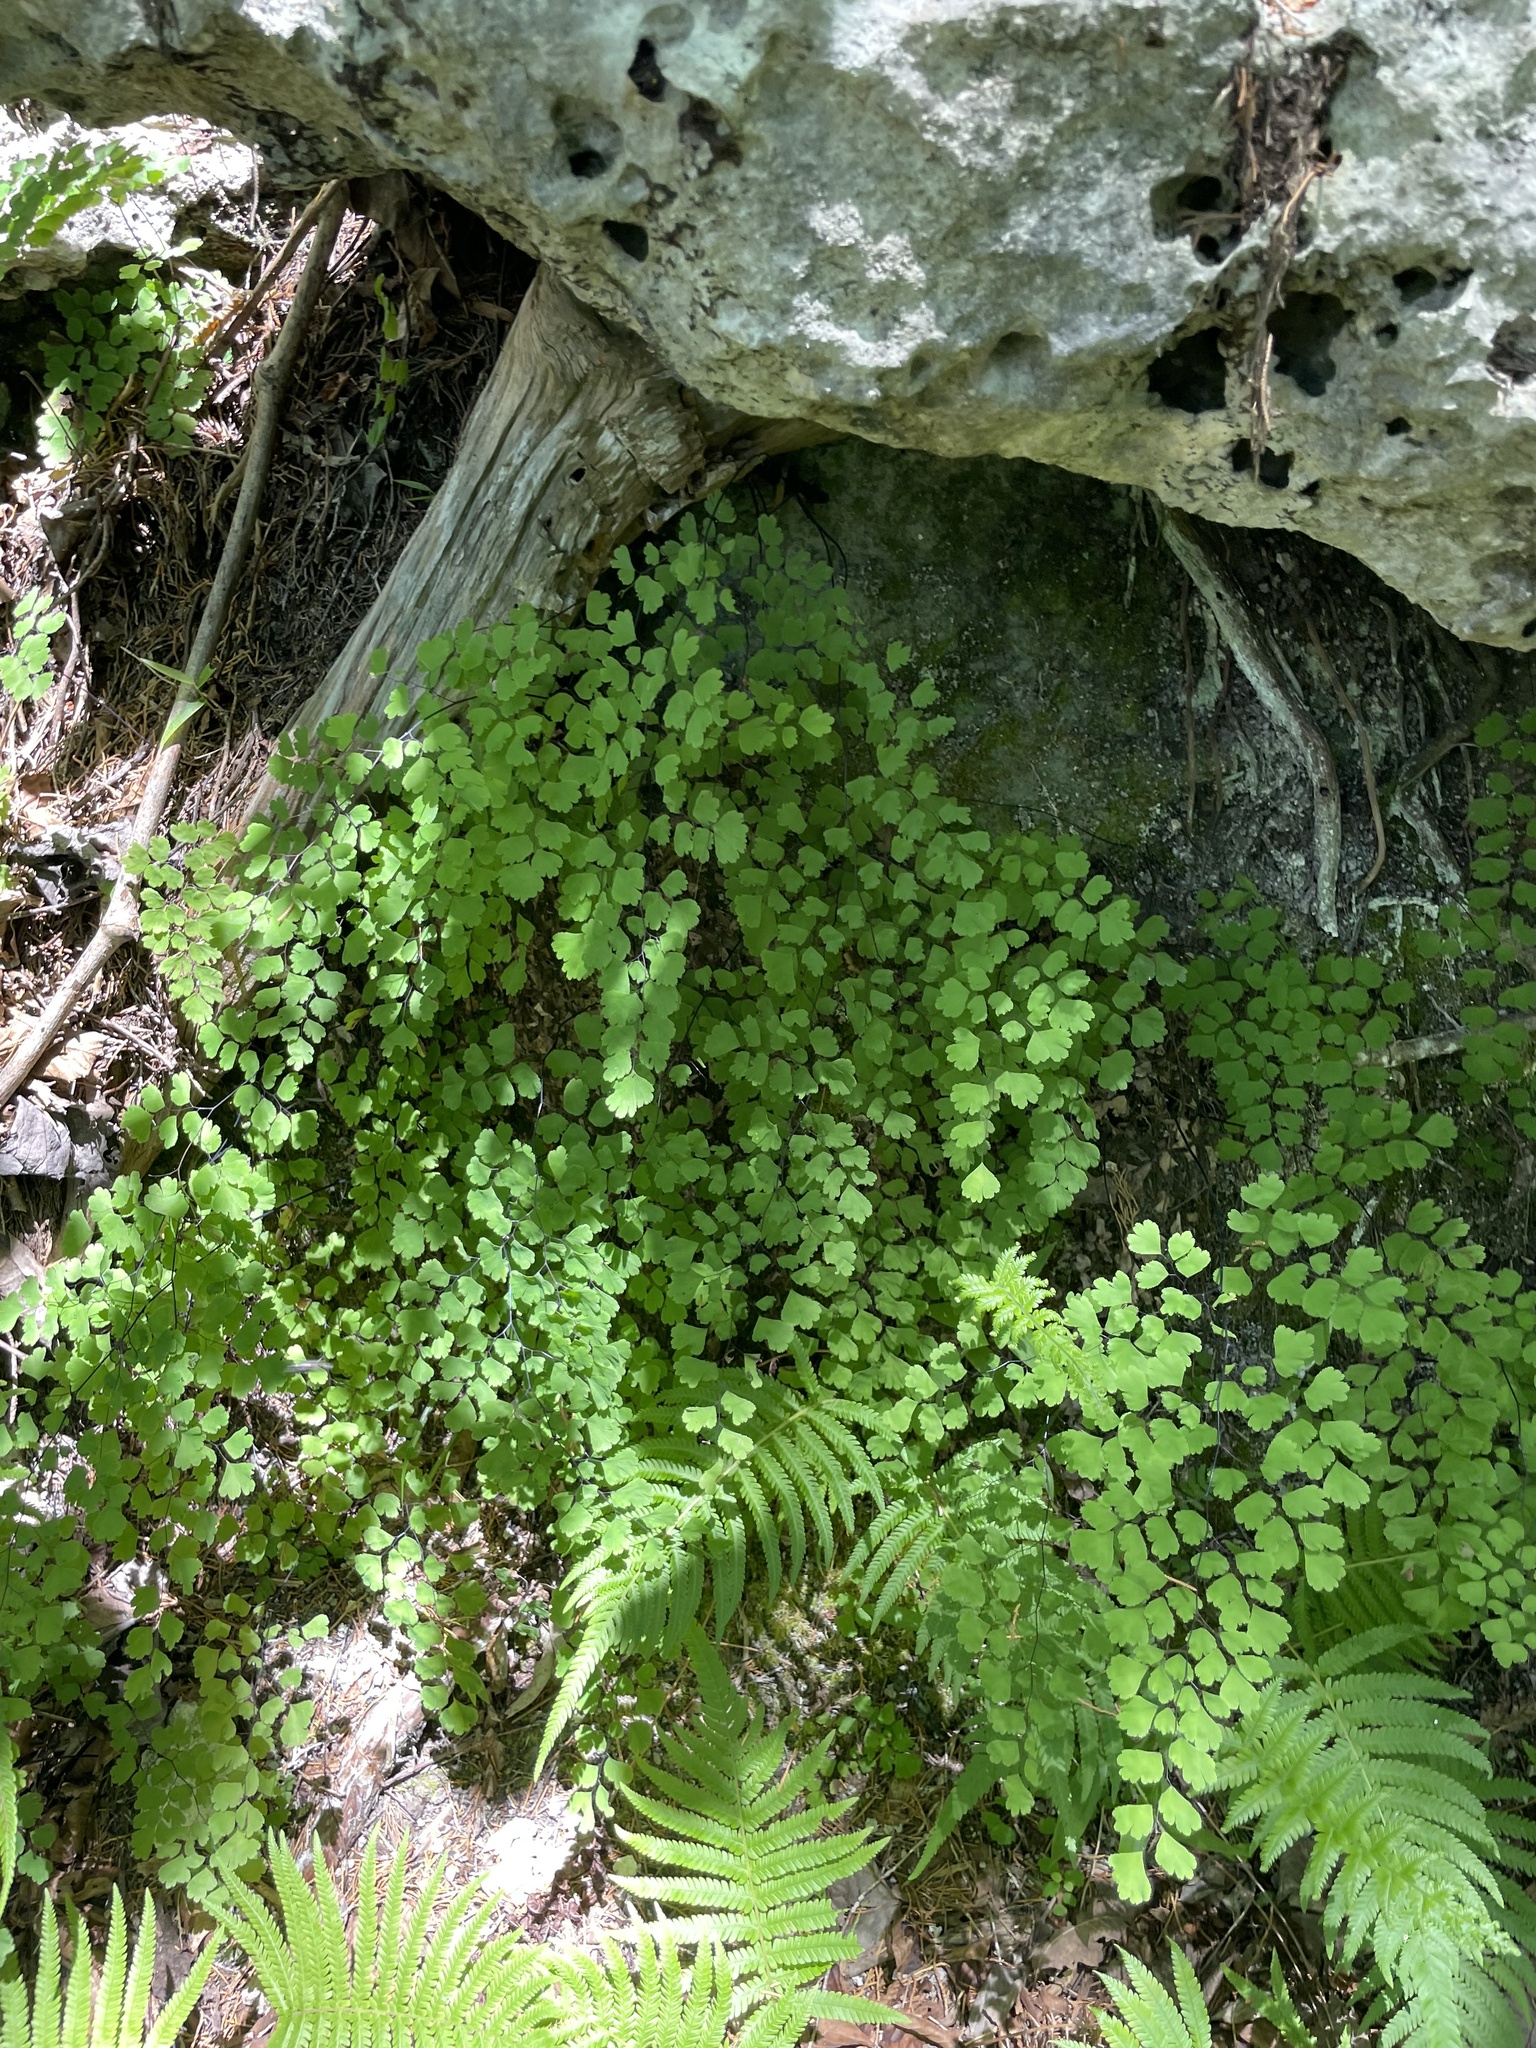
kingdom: Plantae
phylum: Tracheophyta
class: Polypodiopsida
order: Polypodiales
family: Pteridaceae
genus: Adiantum
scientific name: Adiantum capillus-veneris
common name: Maidenhair fern
